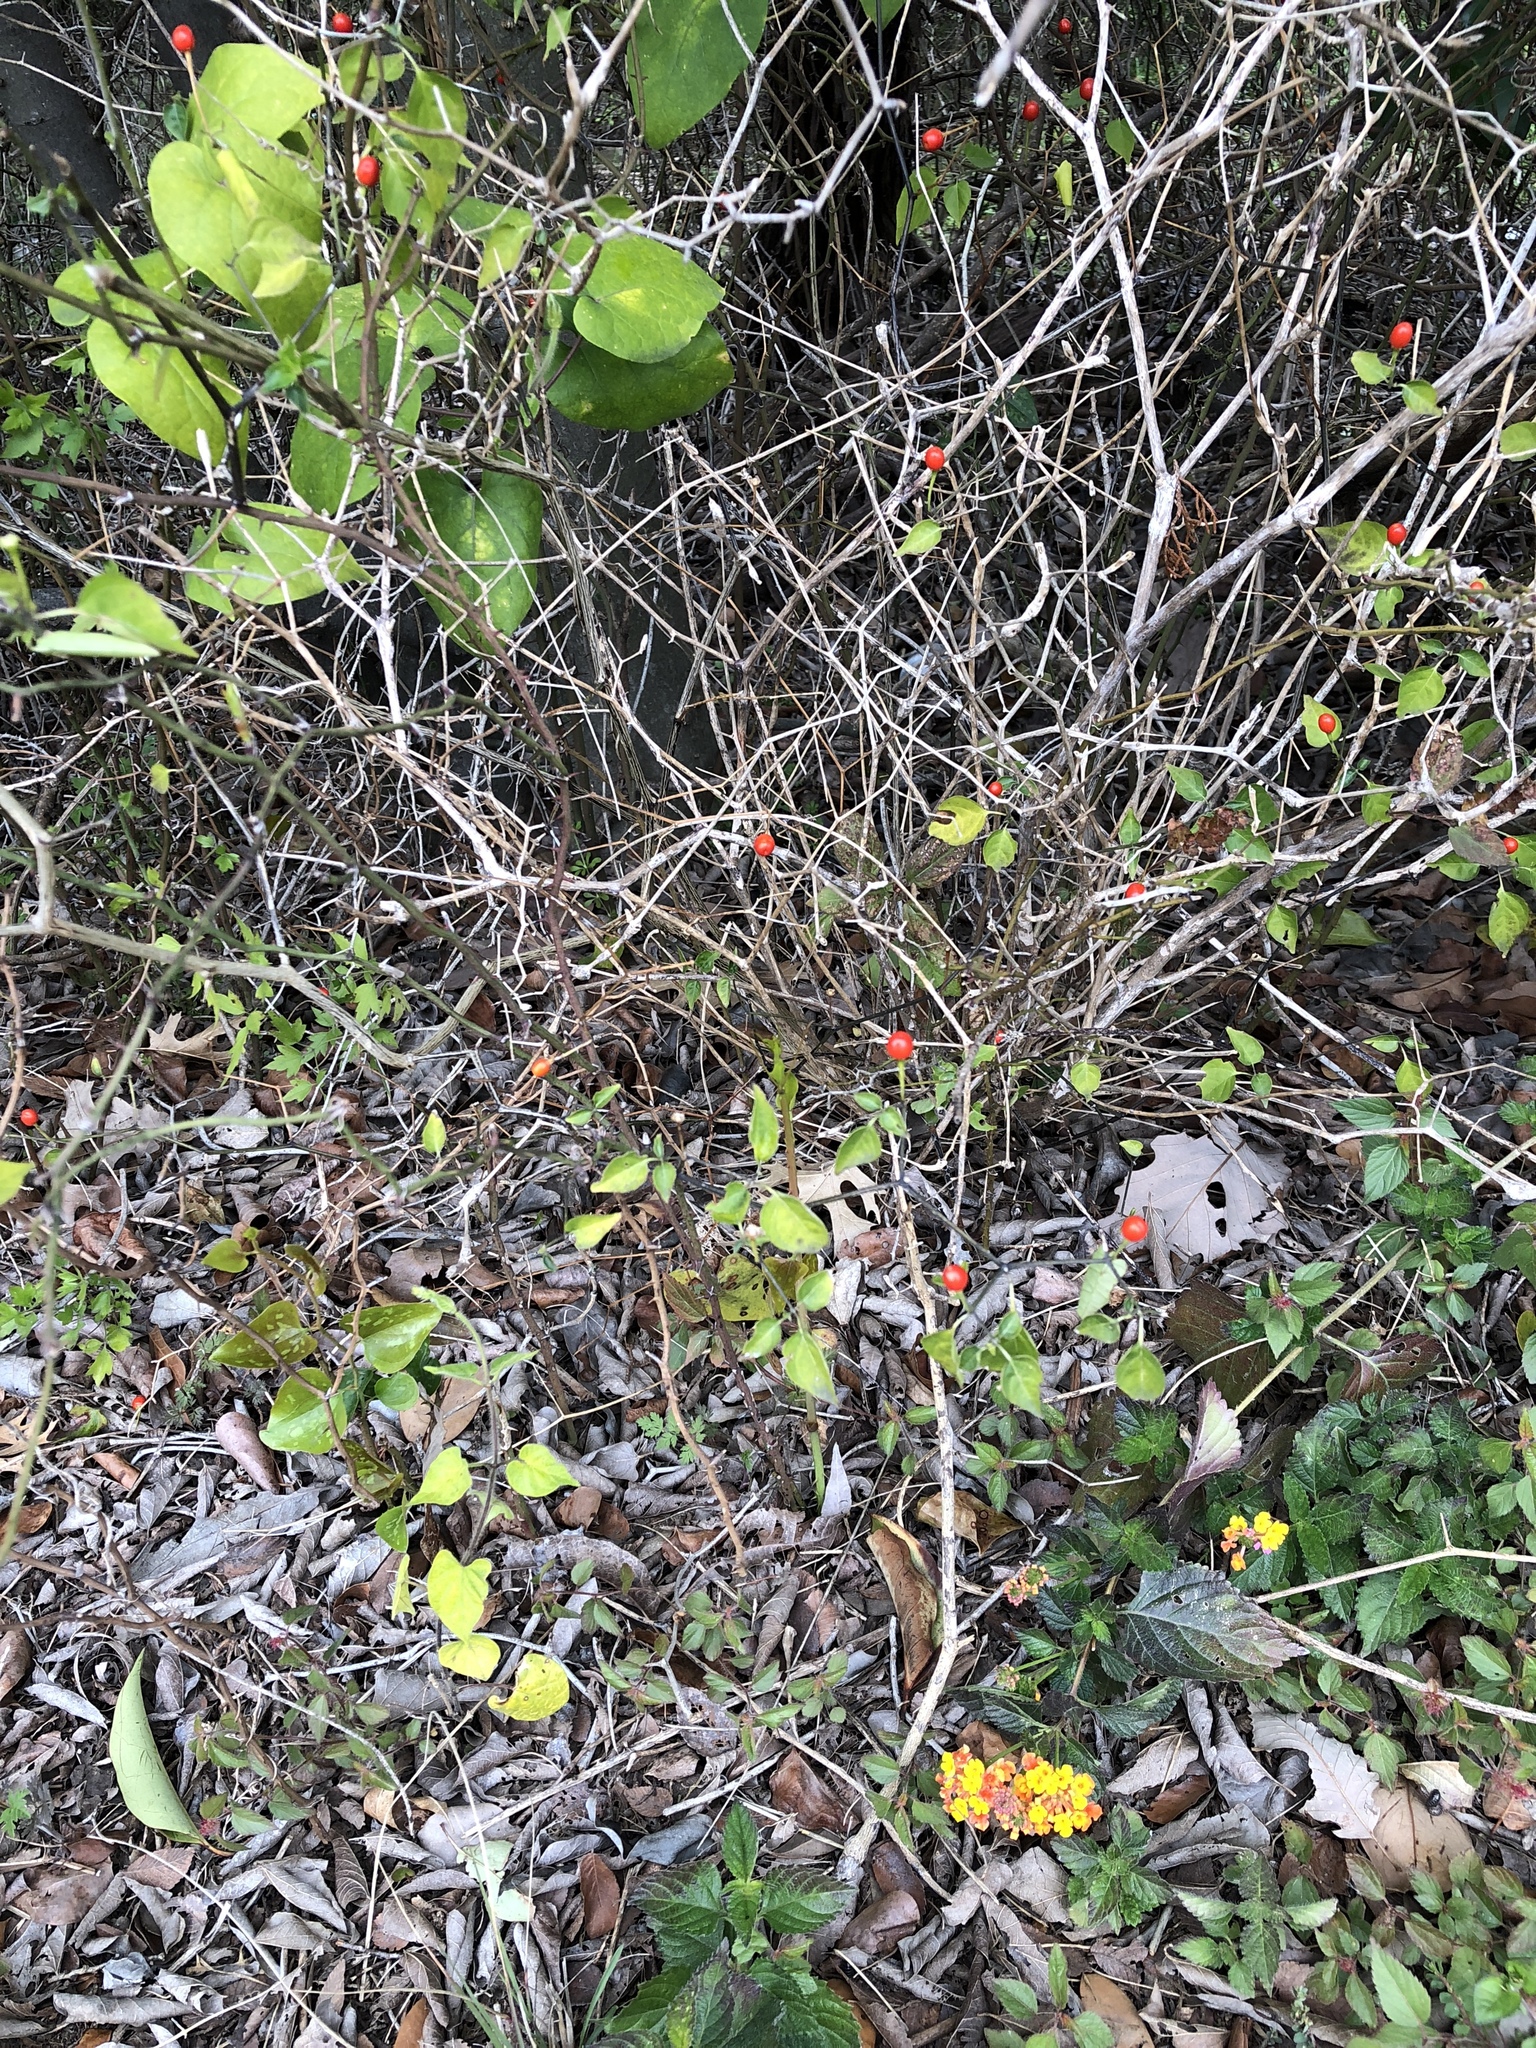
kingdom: Plantae
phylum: Tracheophyta
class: Magnoliopsida
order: Solanales
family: Solanaceae
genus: Capsicum
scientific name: Capsicum annuum
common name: Sweet pepper
